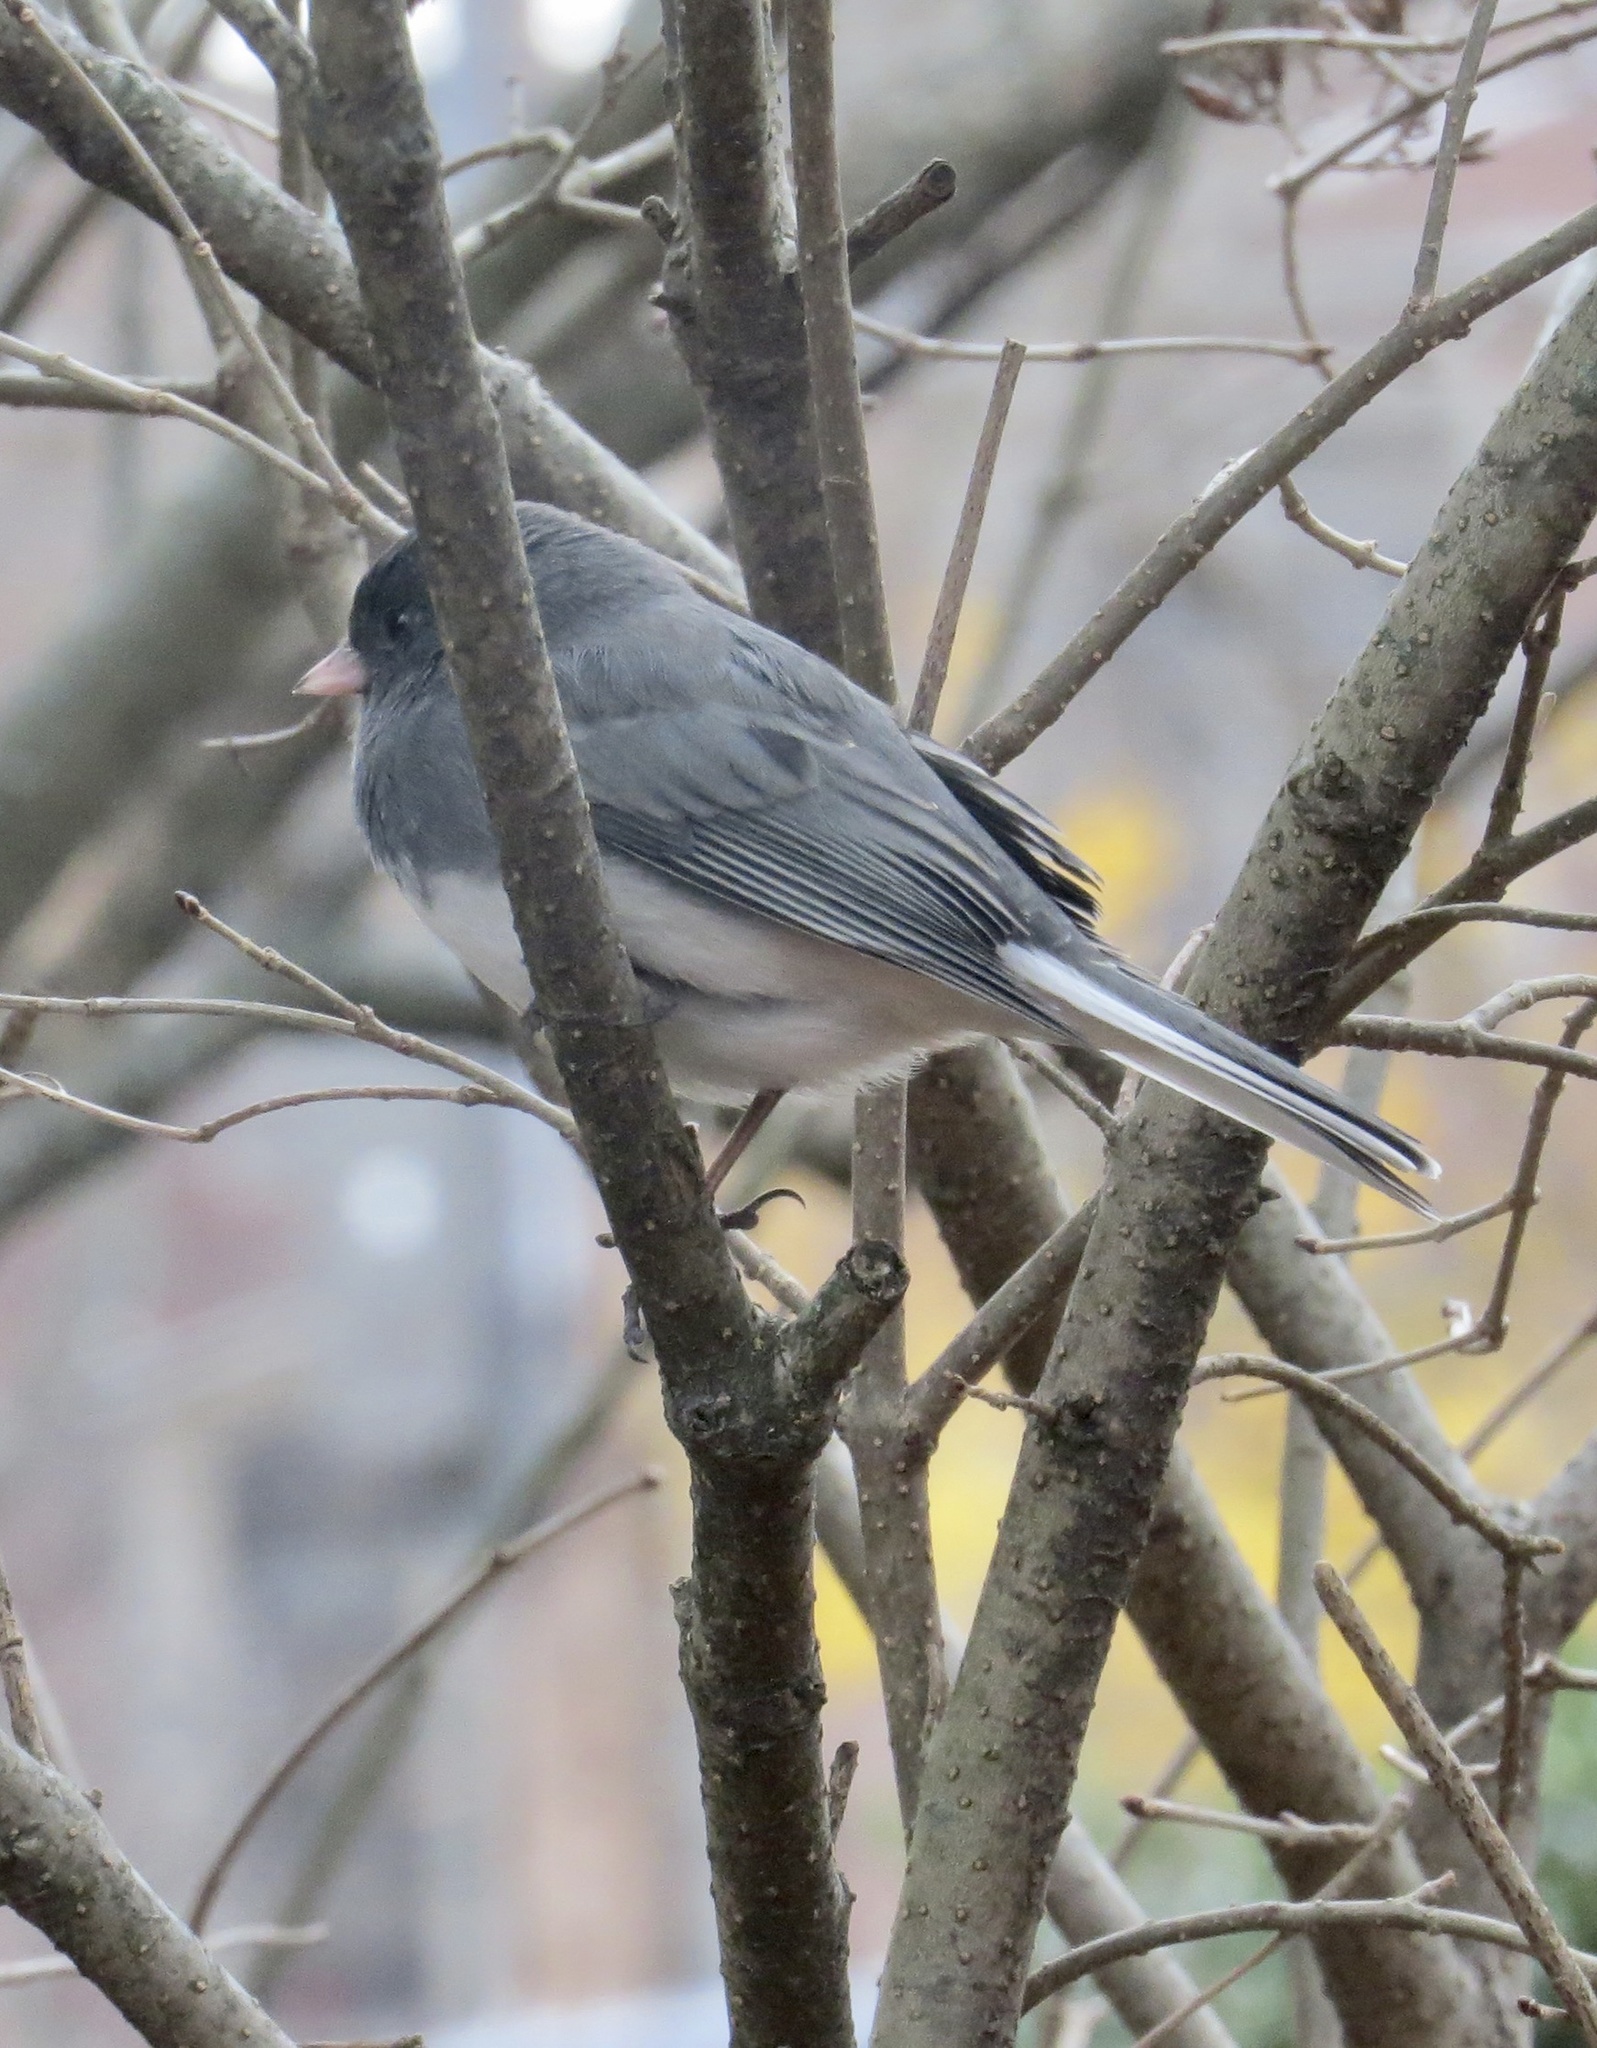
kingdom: Animalia
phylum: Chordata
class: Aves
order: Passeriformes
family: Passerellidae
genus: Junco
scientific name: Junco hyemalis
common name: Dark-eyed junco
